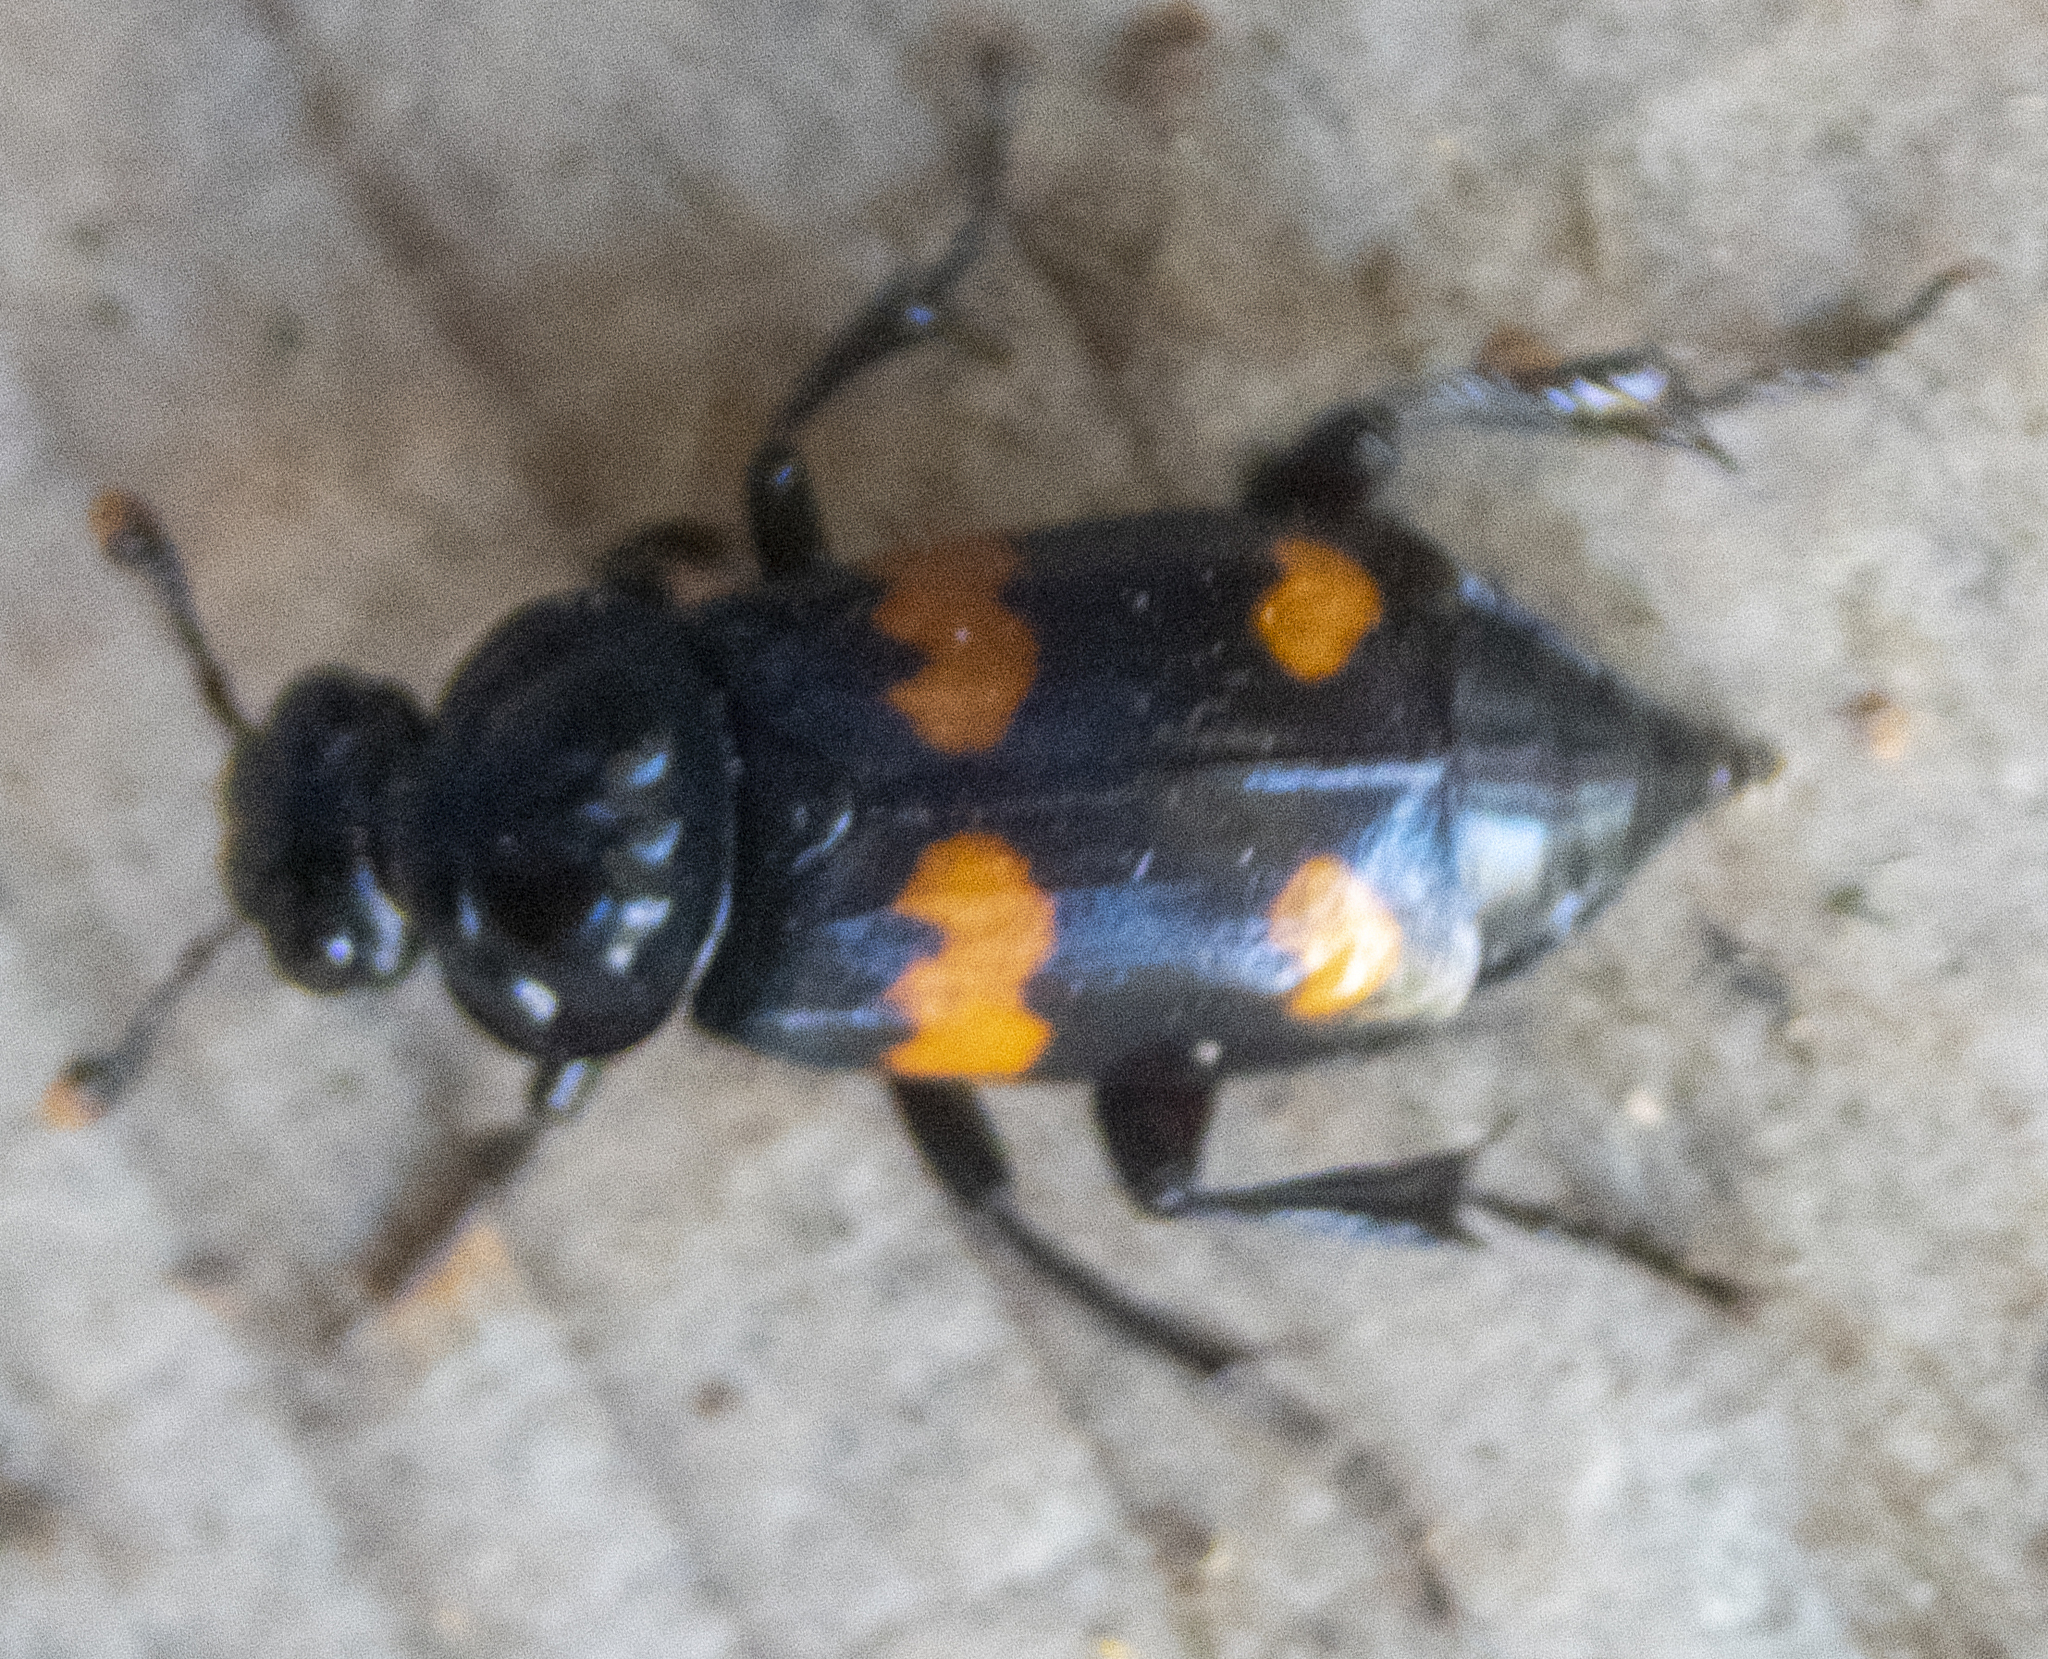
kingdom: Animalia
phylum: Arthropoda
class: Insecta
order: Coleoptera
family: Staphylinidae
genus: Nicrophorus
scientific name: Nicrophorus orbicollis
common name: Roundneck sexton beetle
